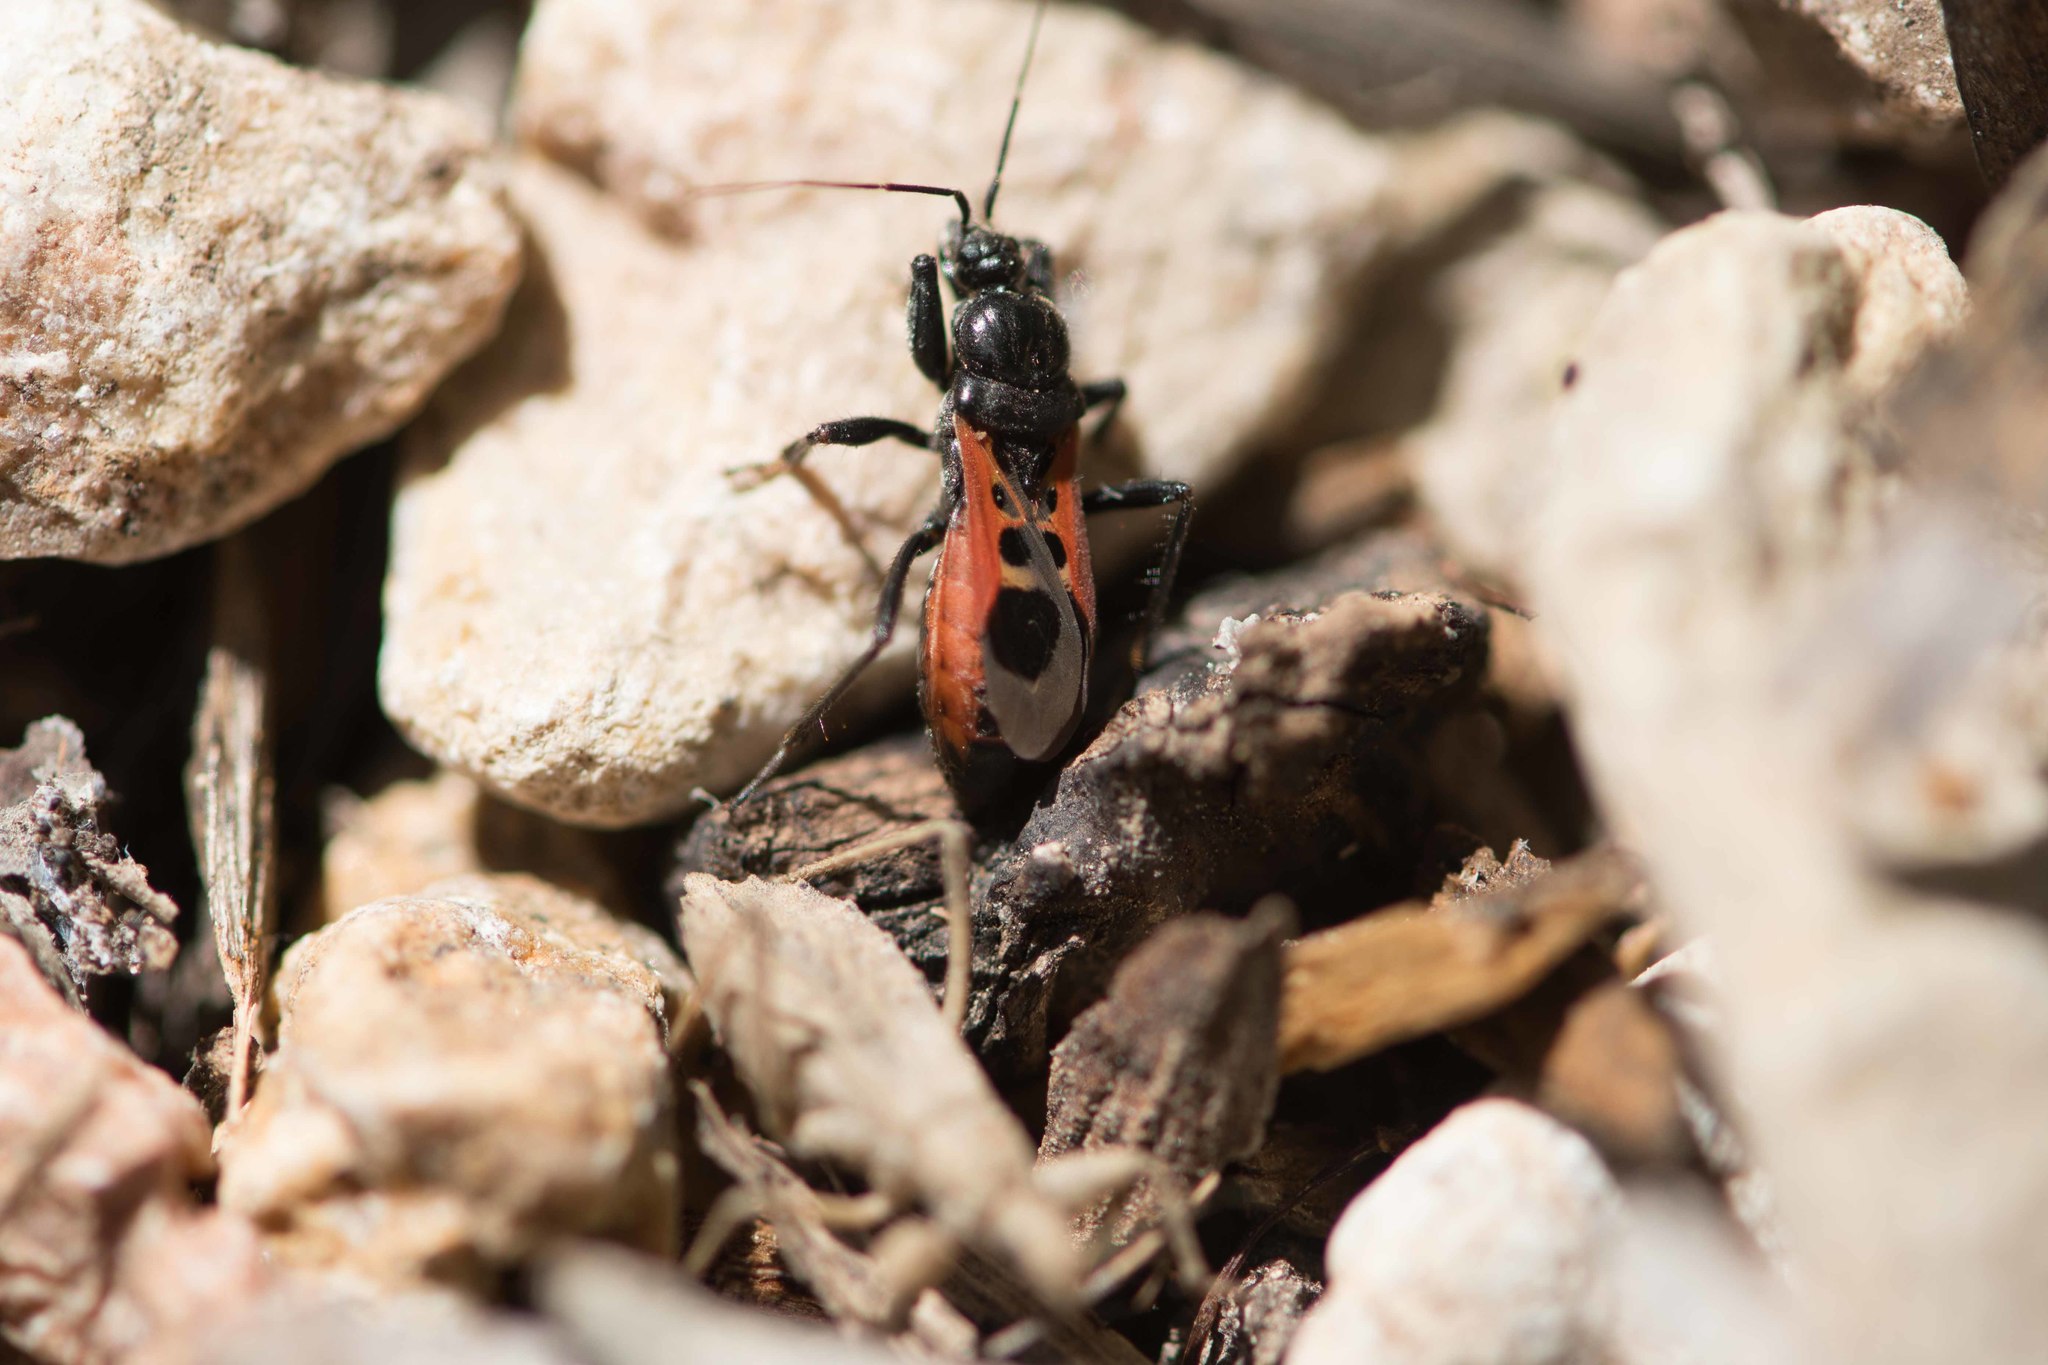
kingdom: Animalia
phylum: Arthropoda
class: Insecta
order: Hemiptera
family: Reduviidae
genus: Peirates
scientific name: Peirates stridulus
